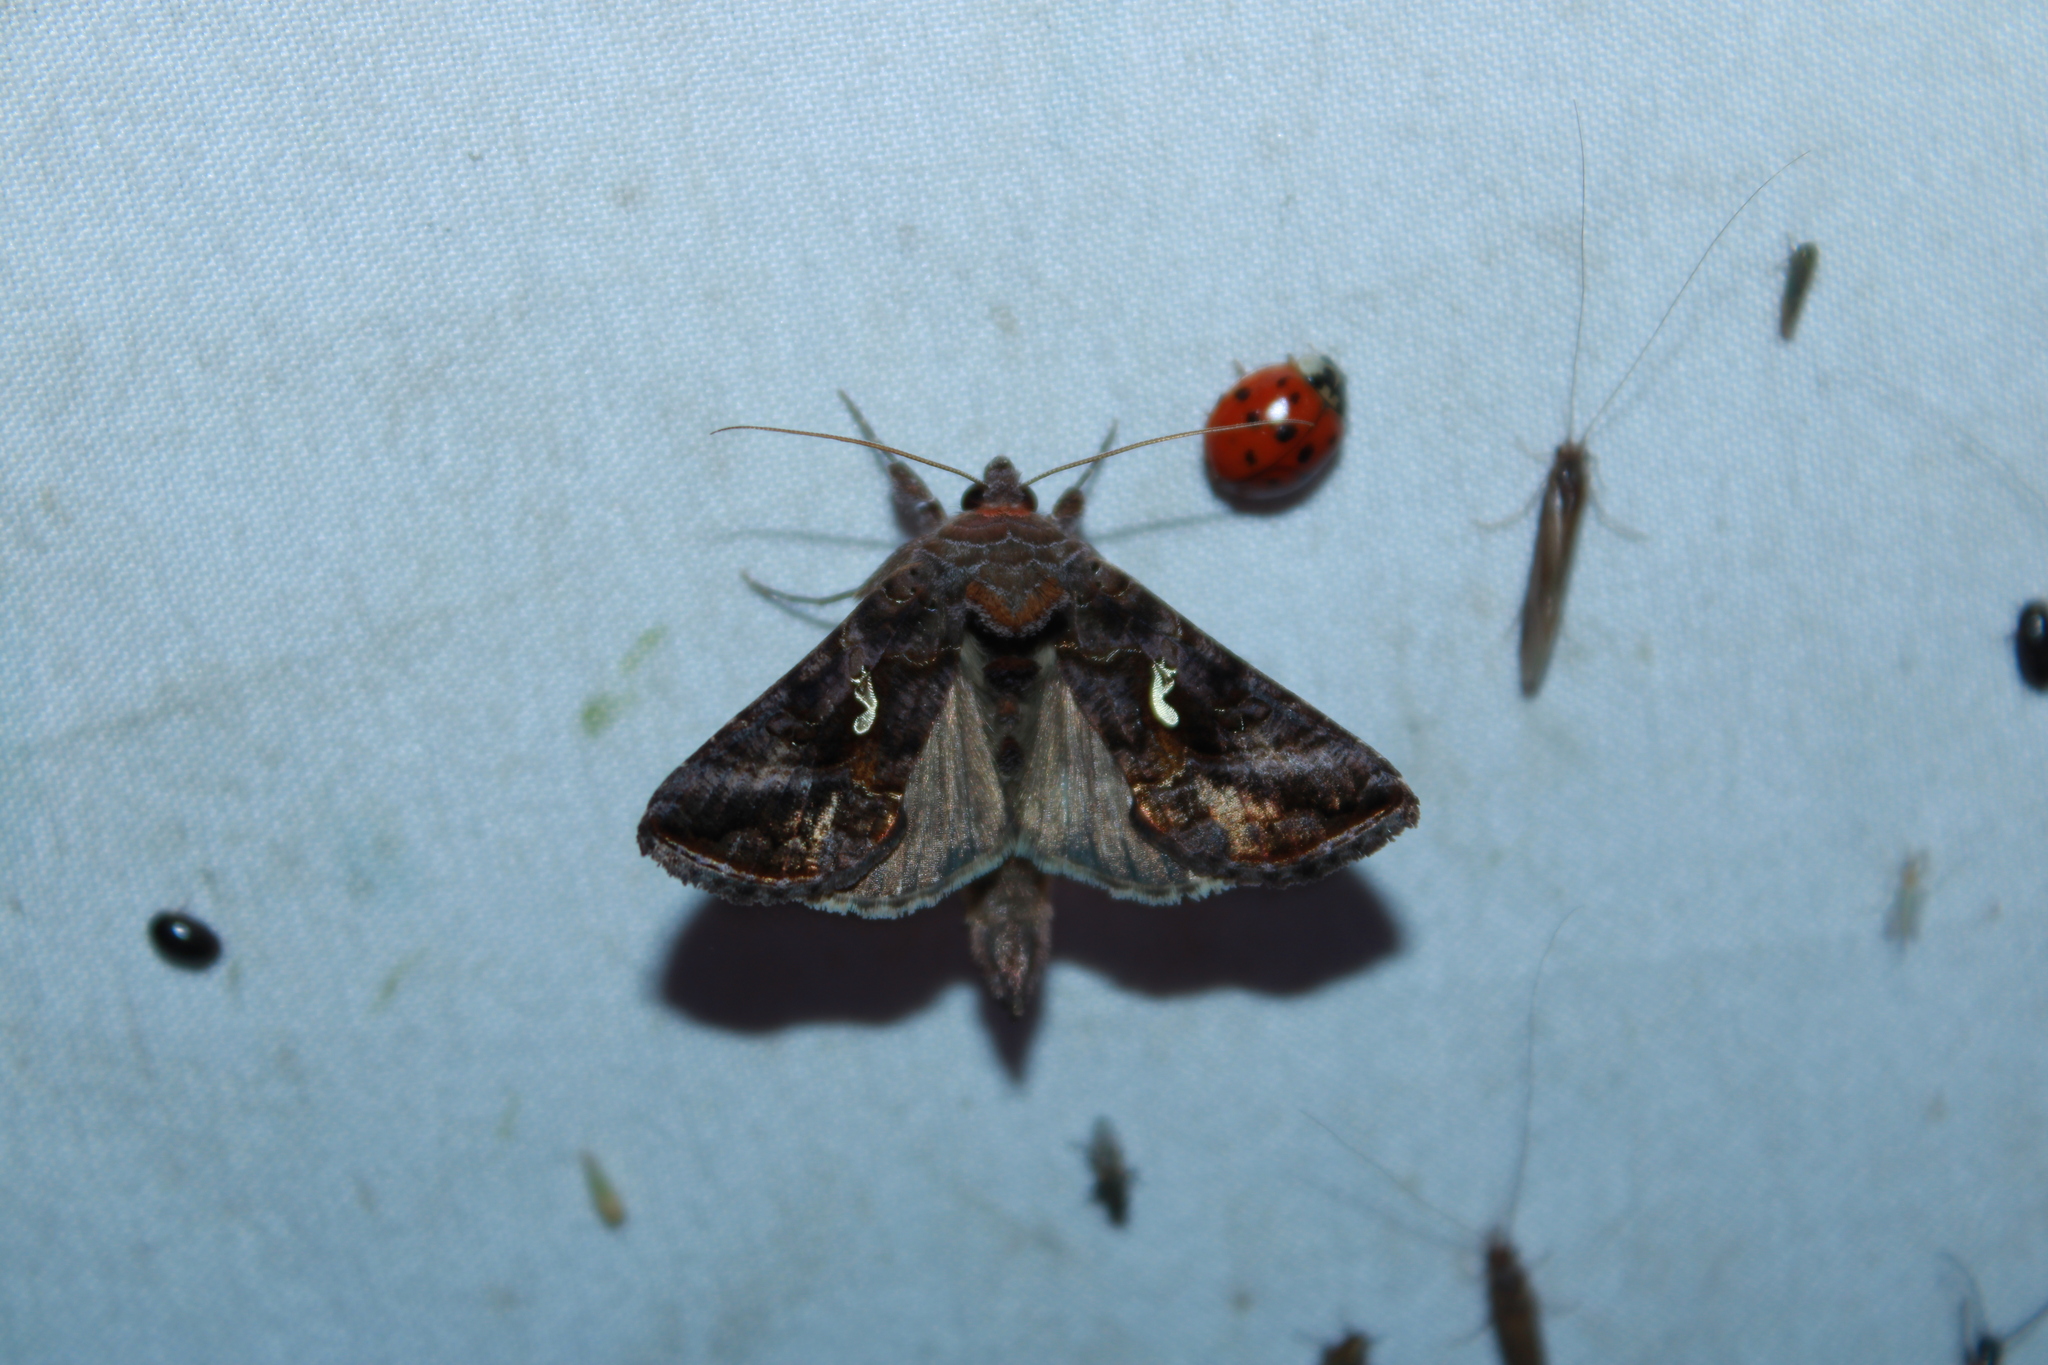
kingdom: Animalia
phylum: Arthropoda
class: Insecta
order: Lepidoptera
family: Noctuidae
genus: Autographa
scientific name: Autographa precationis
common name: Common looper moth
